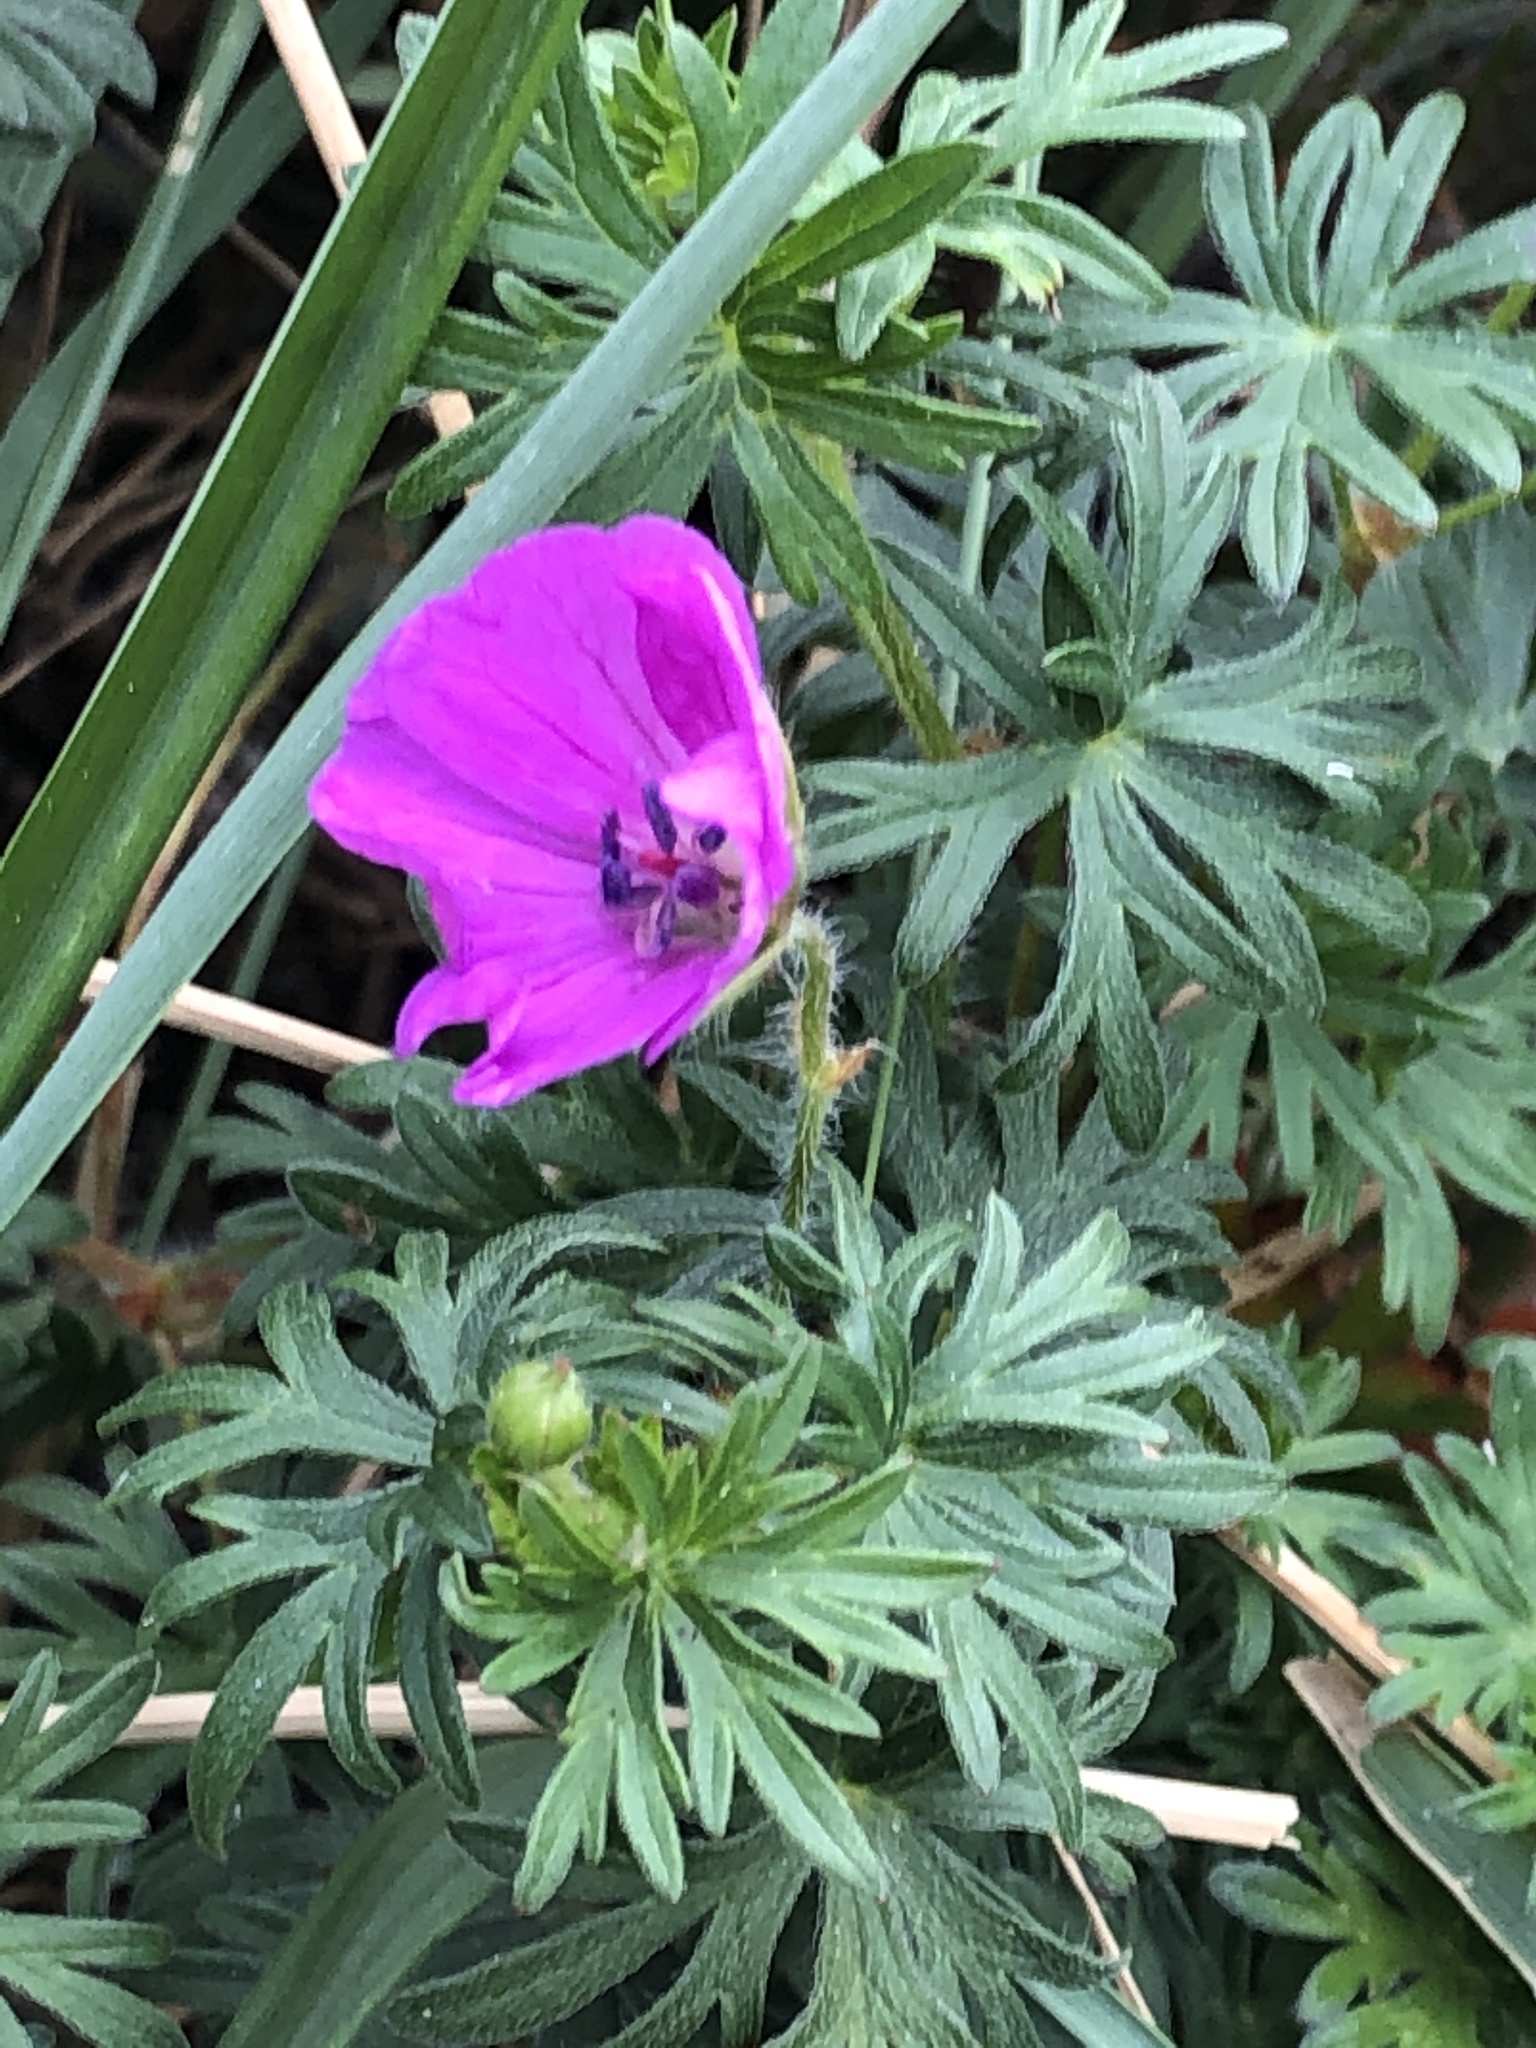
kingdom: Plantae
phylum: Tracheophyta
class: Magnoliopsida
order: Geraniales
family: Geraniaceae
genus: Geranium
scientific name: Geranium sanguineum
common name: Bloody crane's-bill
